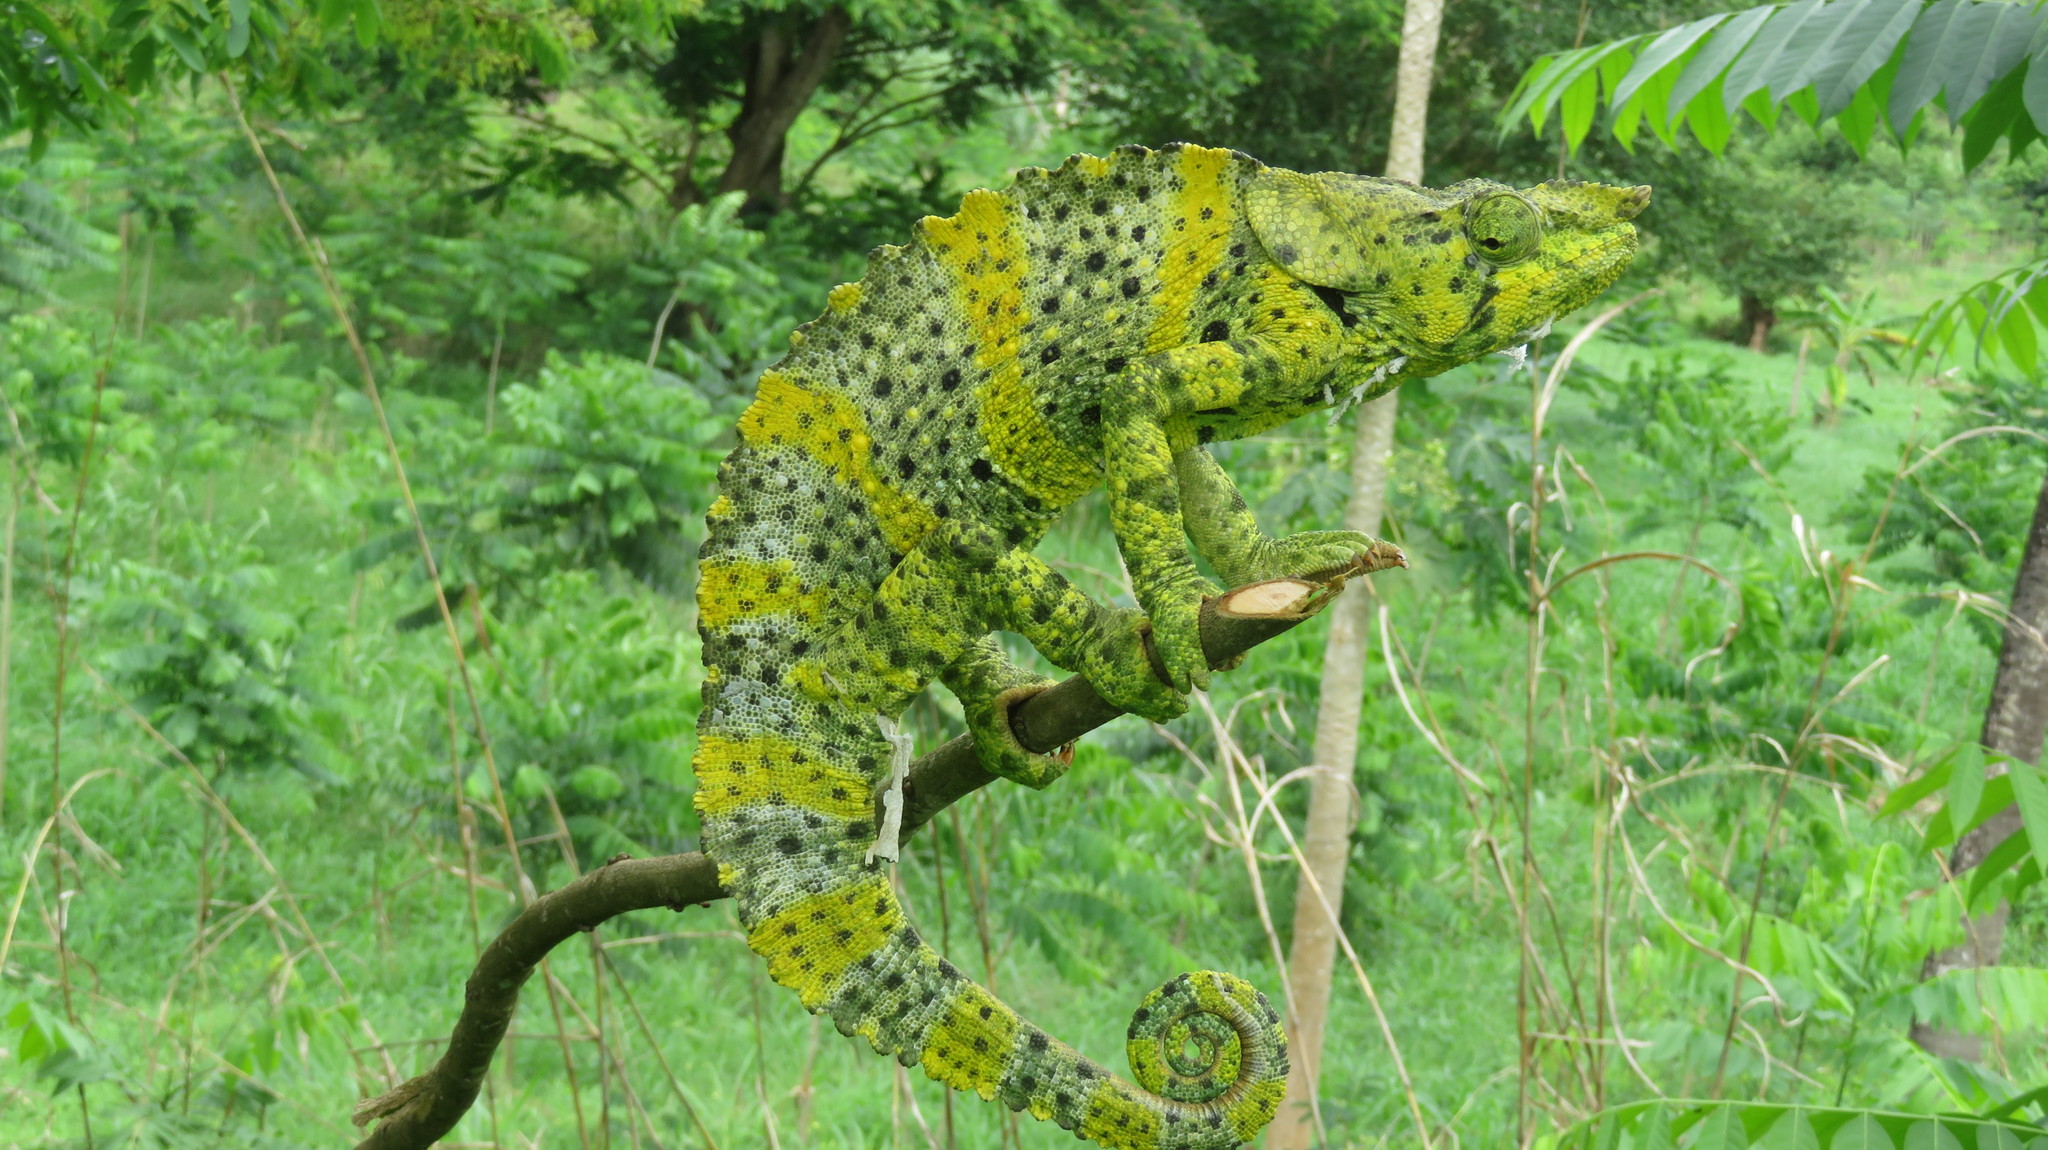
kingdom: Animalia
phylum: Chordata
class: Squamata
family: Chamaeleonidae
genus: Trioceros
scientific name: Trioceros melleri
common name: Meller's chameleon
